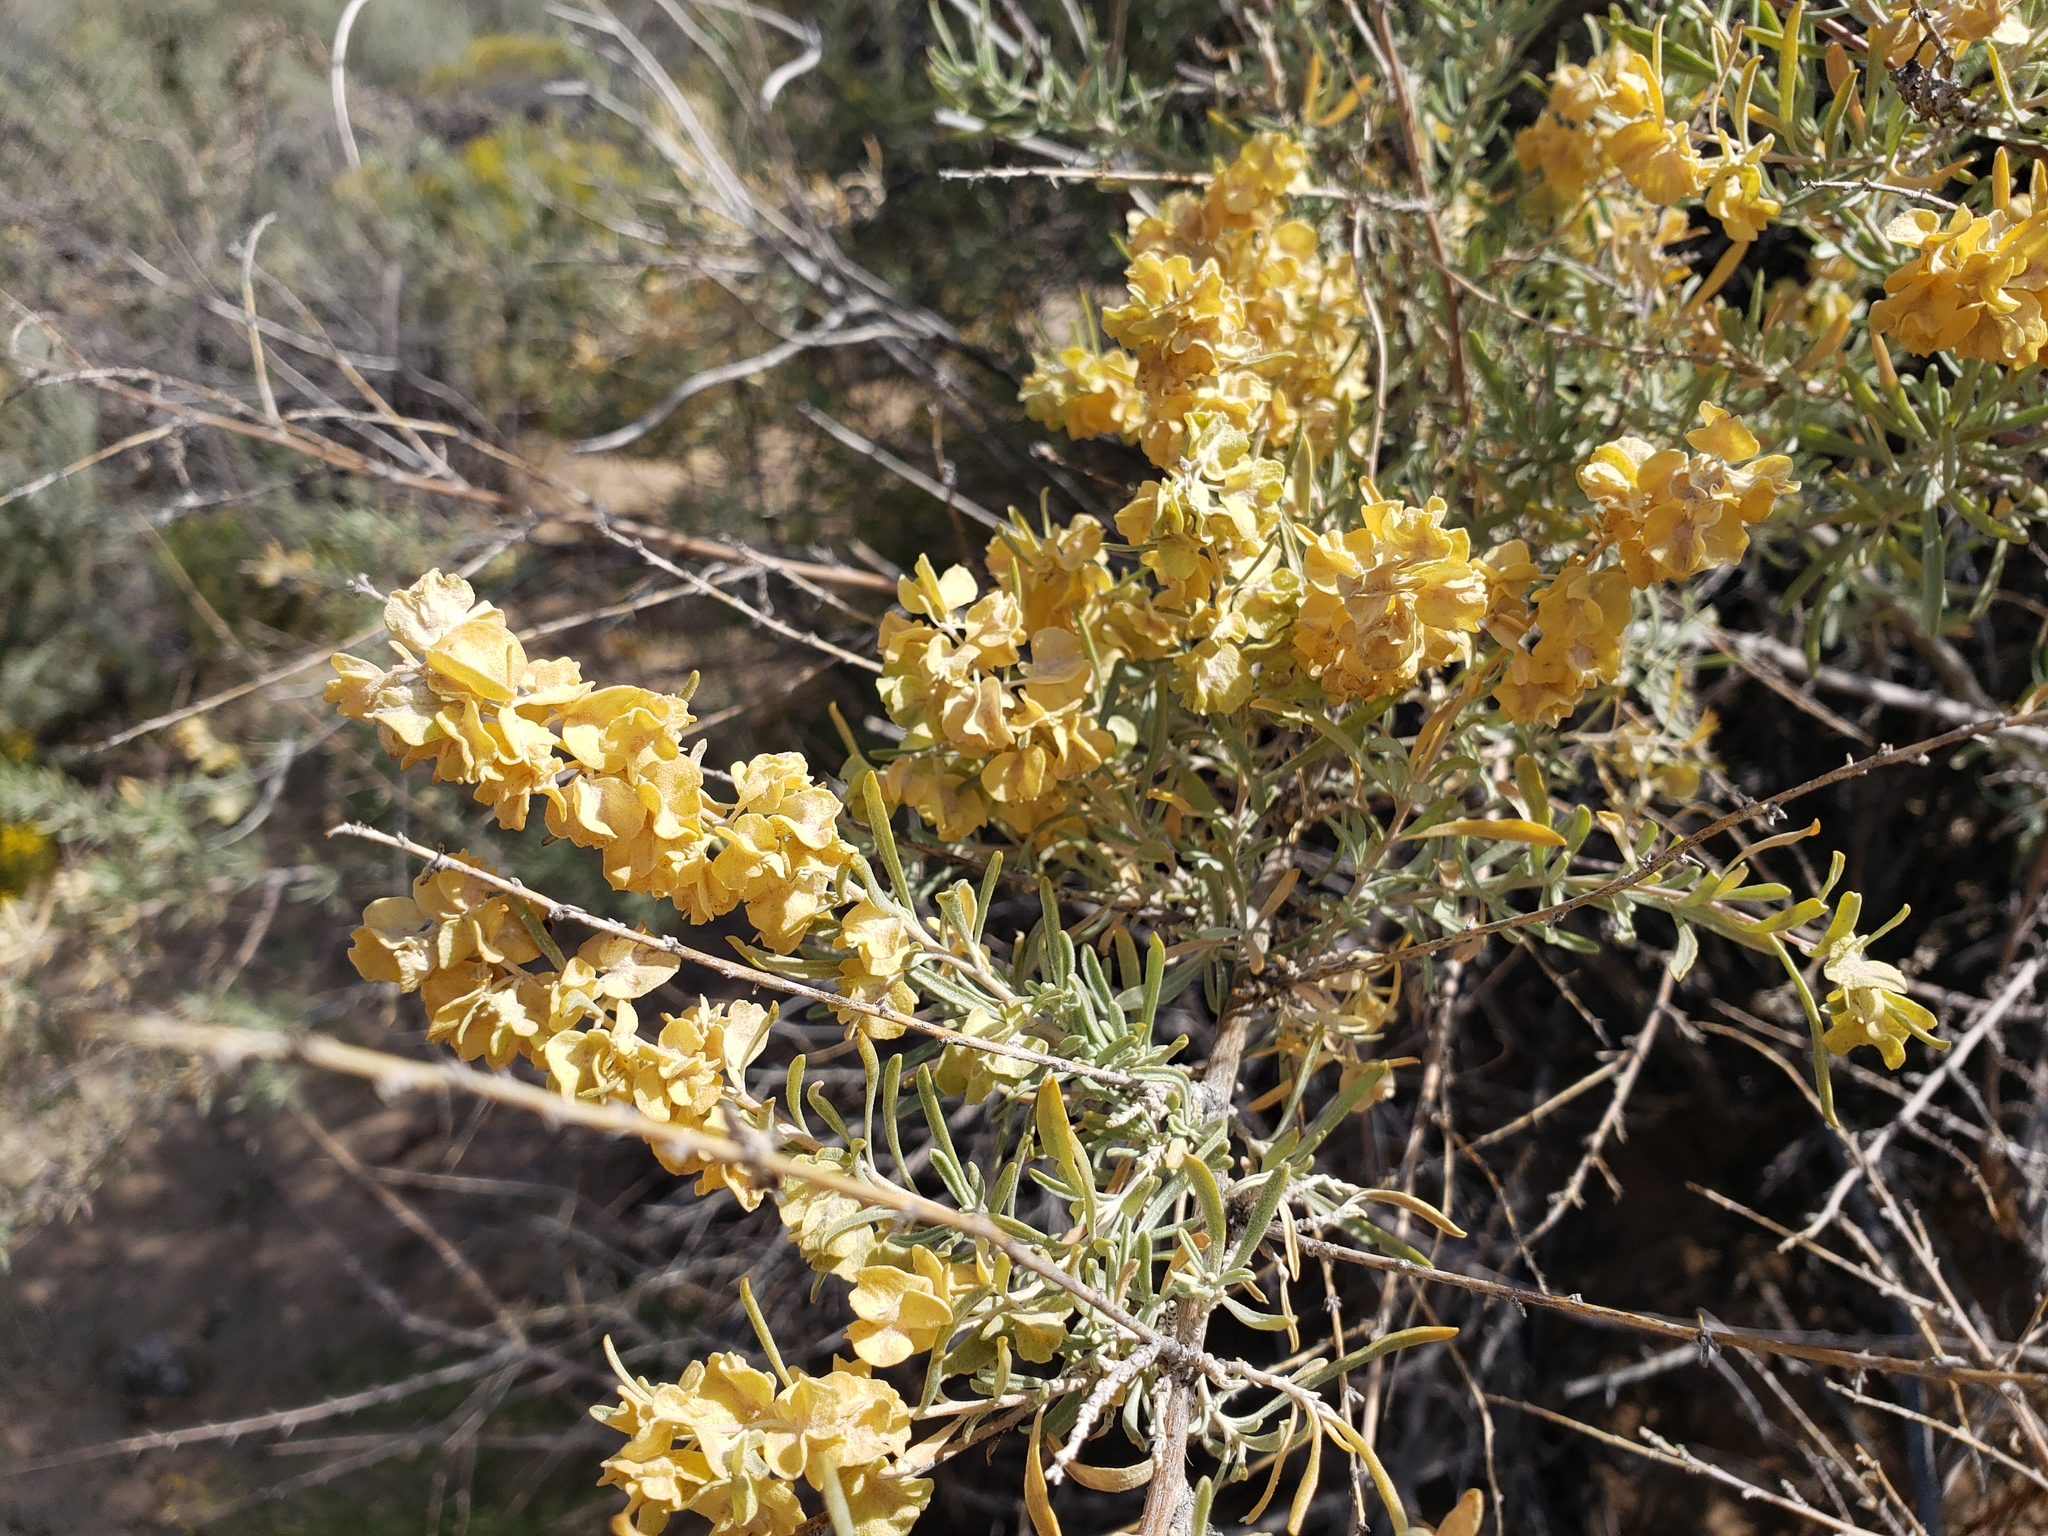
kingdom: Plantae
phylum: Tracheophyta
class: Magnoliopsida
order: Caryophyllales
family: Amaranthaceae
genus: Atriplex
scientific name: Atriplex canescens
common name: Four-wing saltbush
